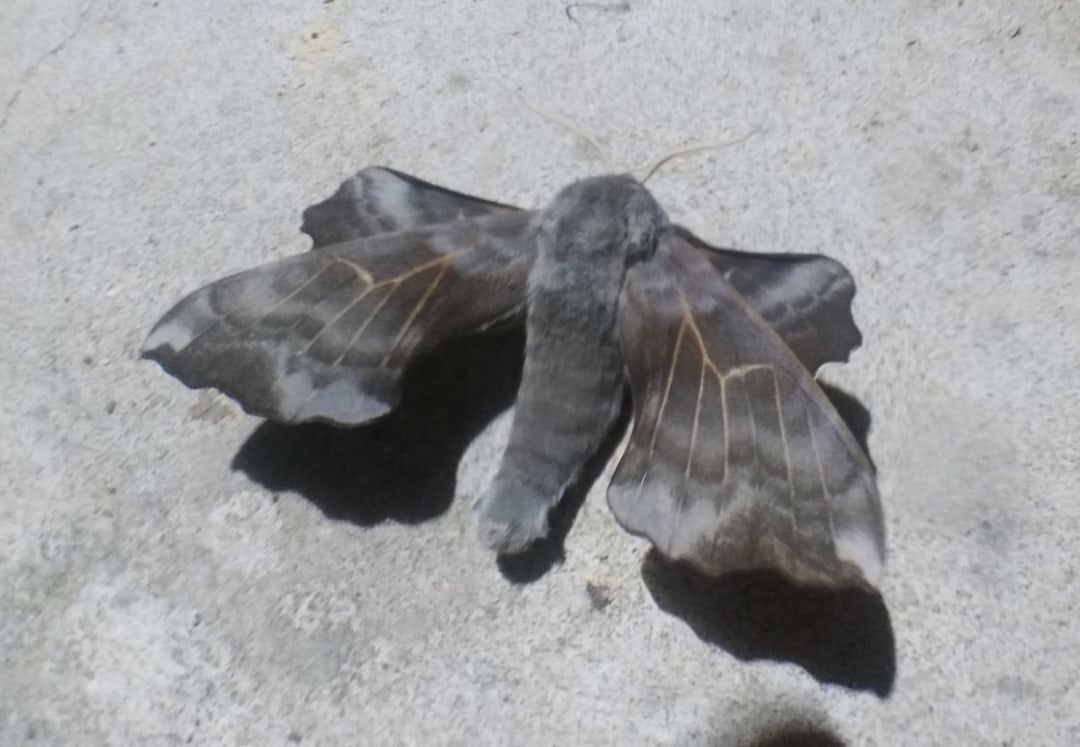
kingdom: Animalia
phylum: Arthropoda
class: Insecta
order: Lepidoptera
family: Sphingidae
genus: Laothoe
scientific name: Laothoe amurensis
